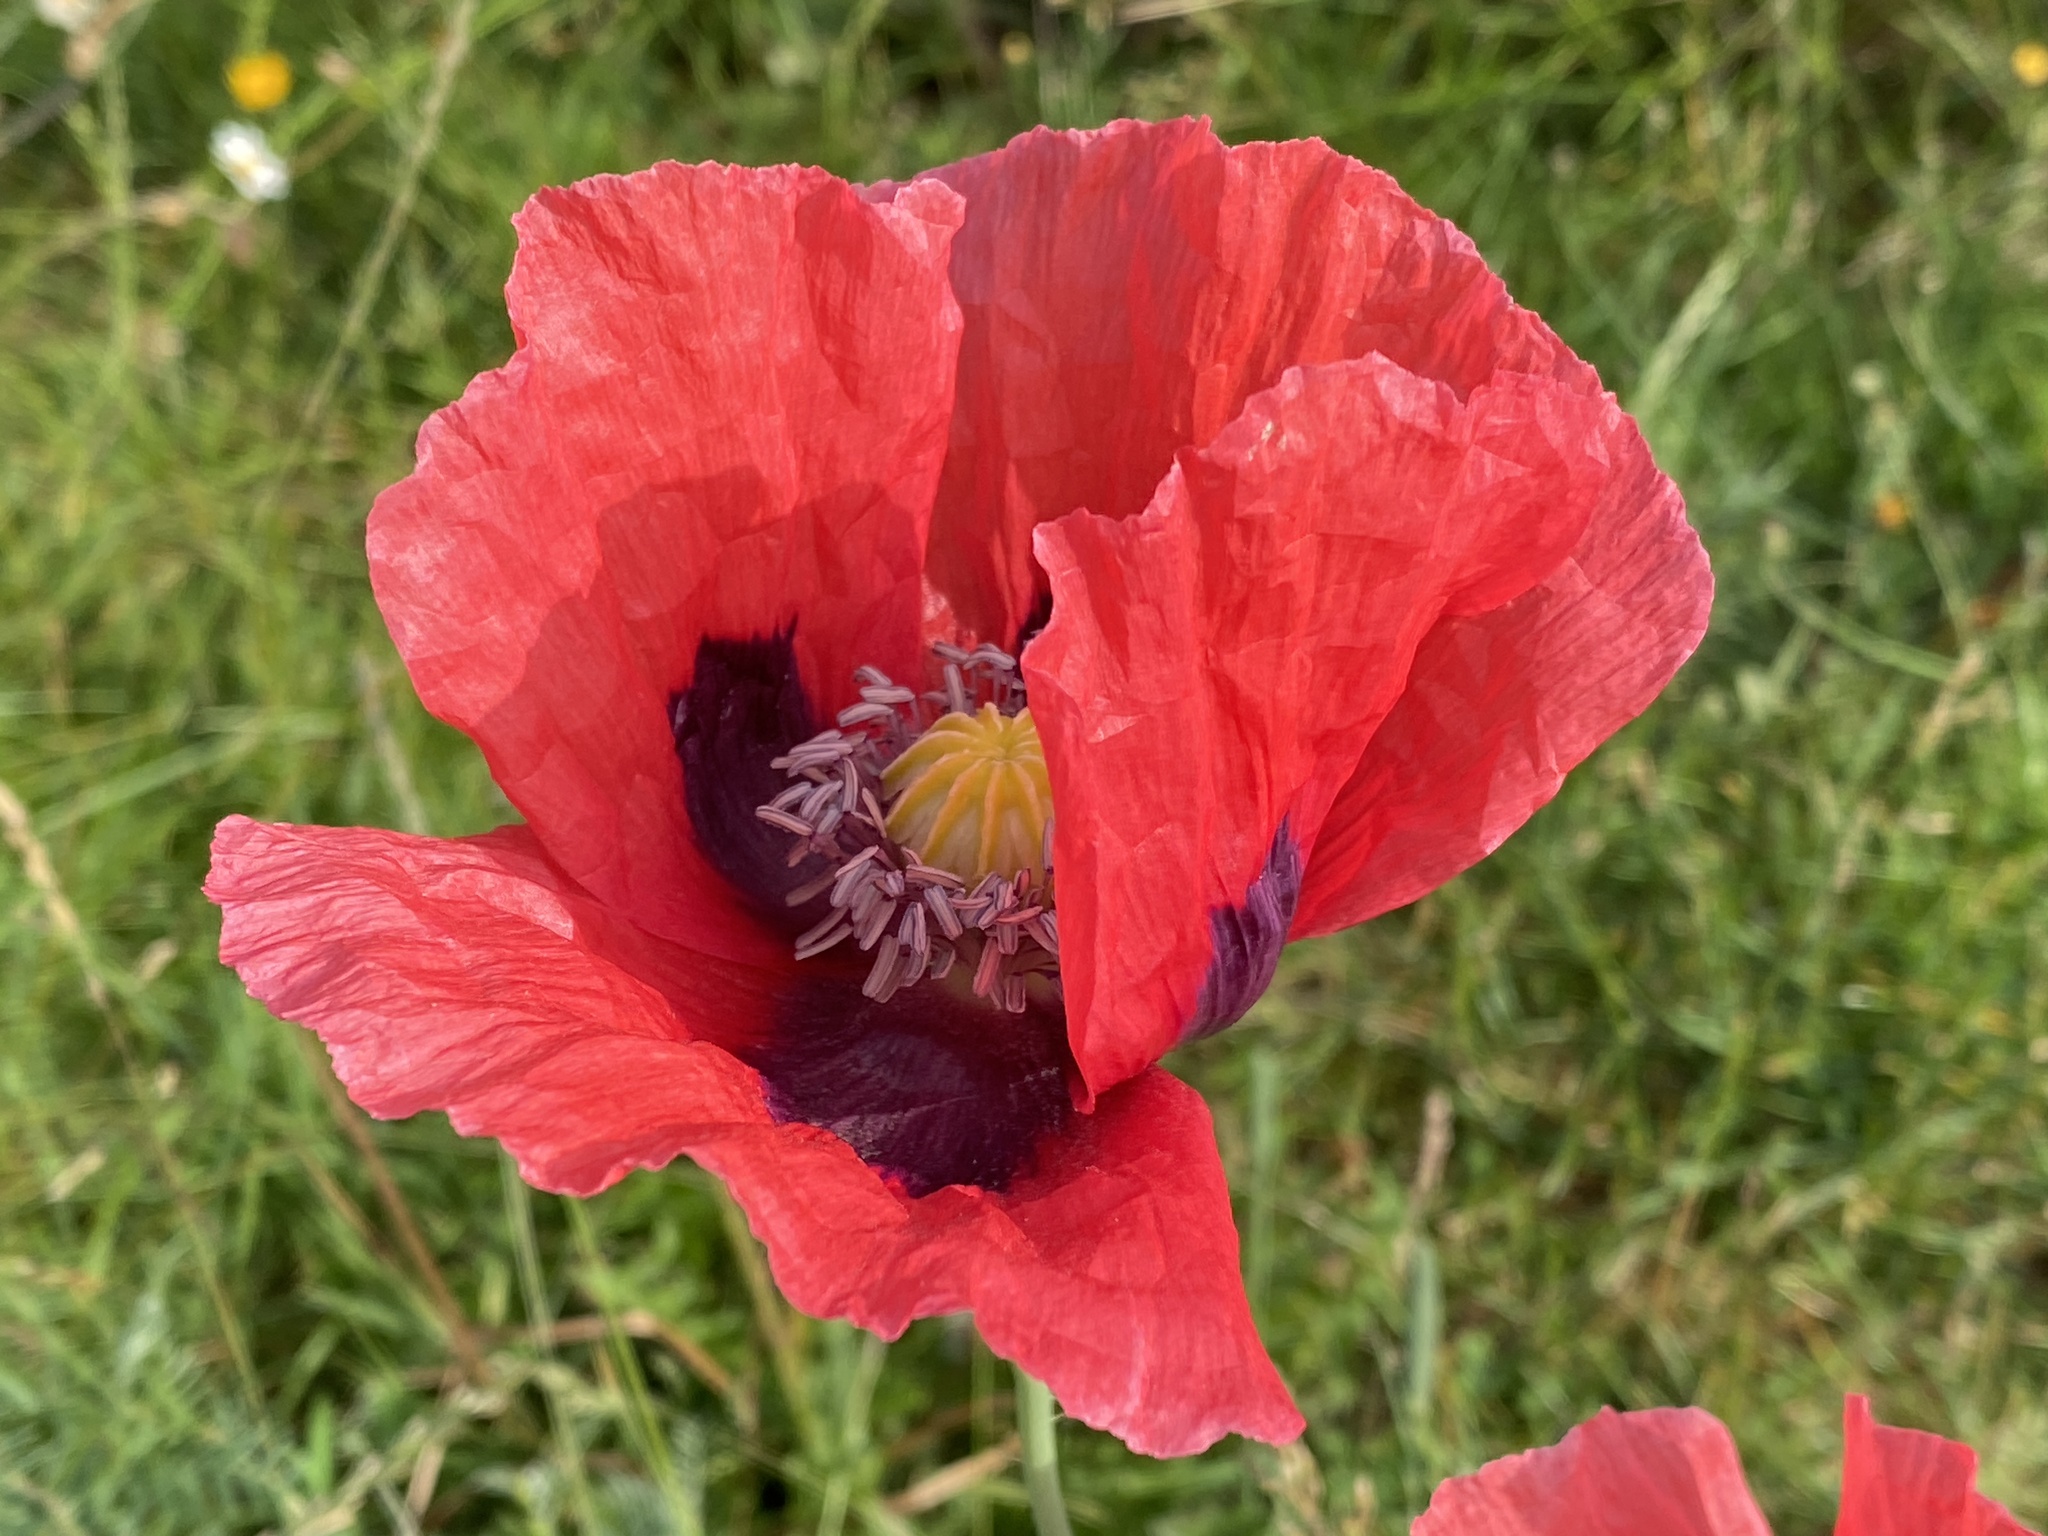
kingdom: Plantae
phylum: Tracheophyta
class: Magnoliopsida
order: Ranunculales
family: Papaveraceae
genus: Papaver
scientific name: Papaver somniferum
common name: Opium poppy
